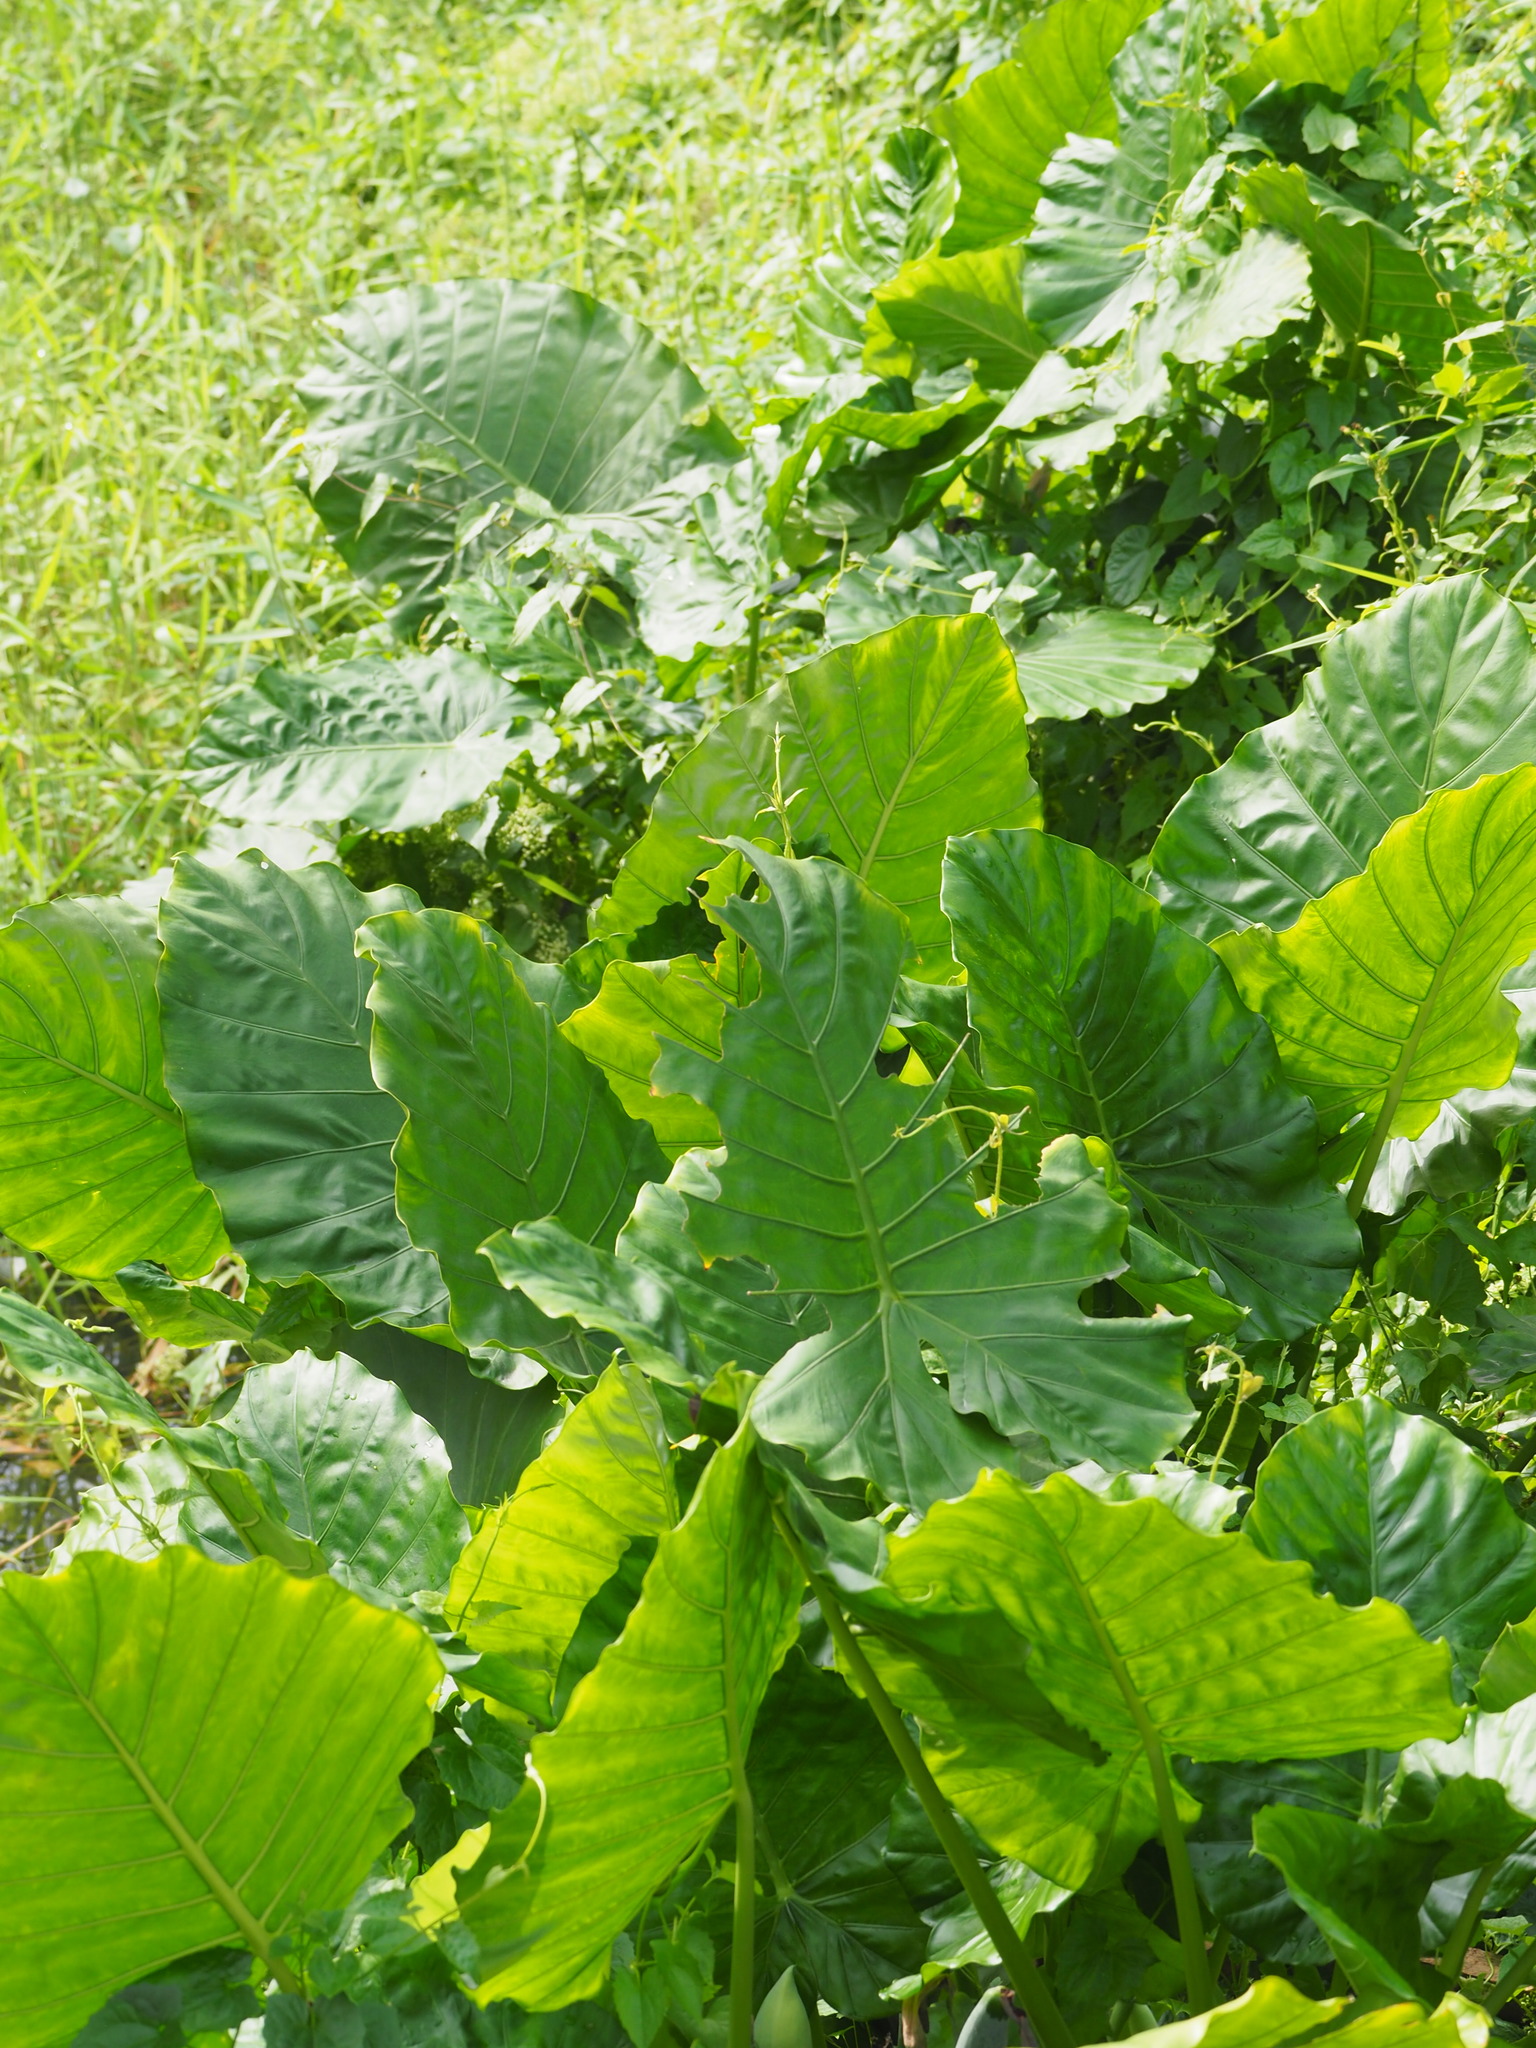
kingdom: Plantae
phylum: Tracheophyta
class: Liliopsida
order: Alismatales
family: Araceae
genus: Alocasia
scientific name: Alocasia odora
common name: Asian taro
